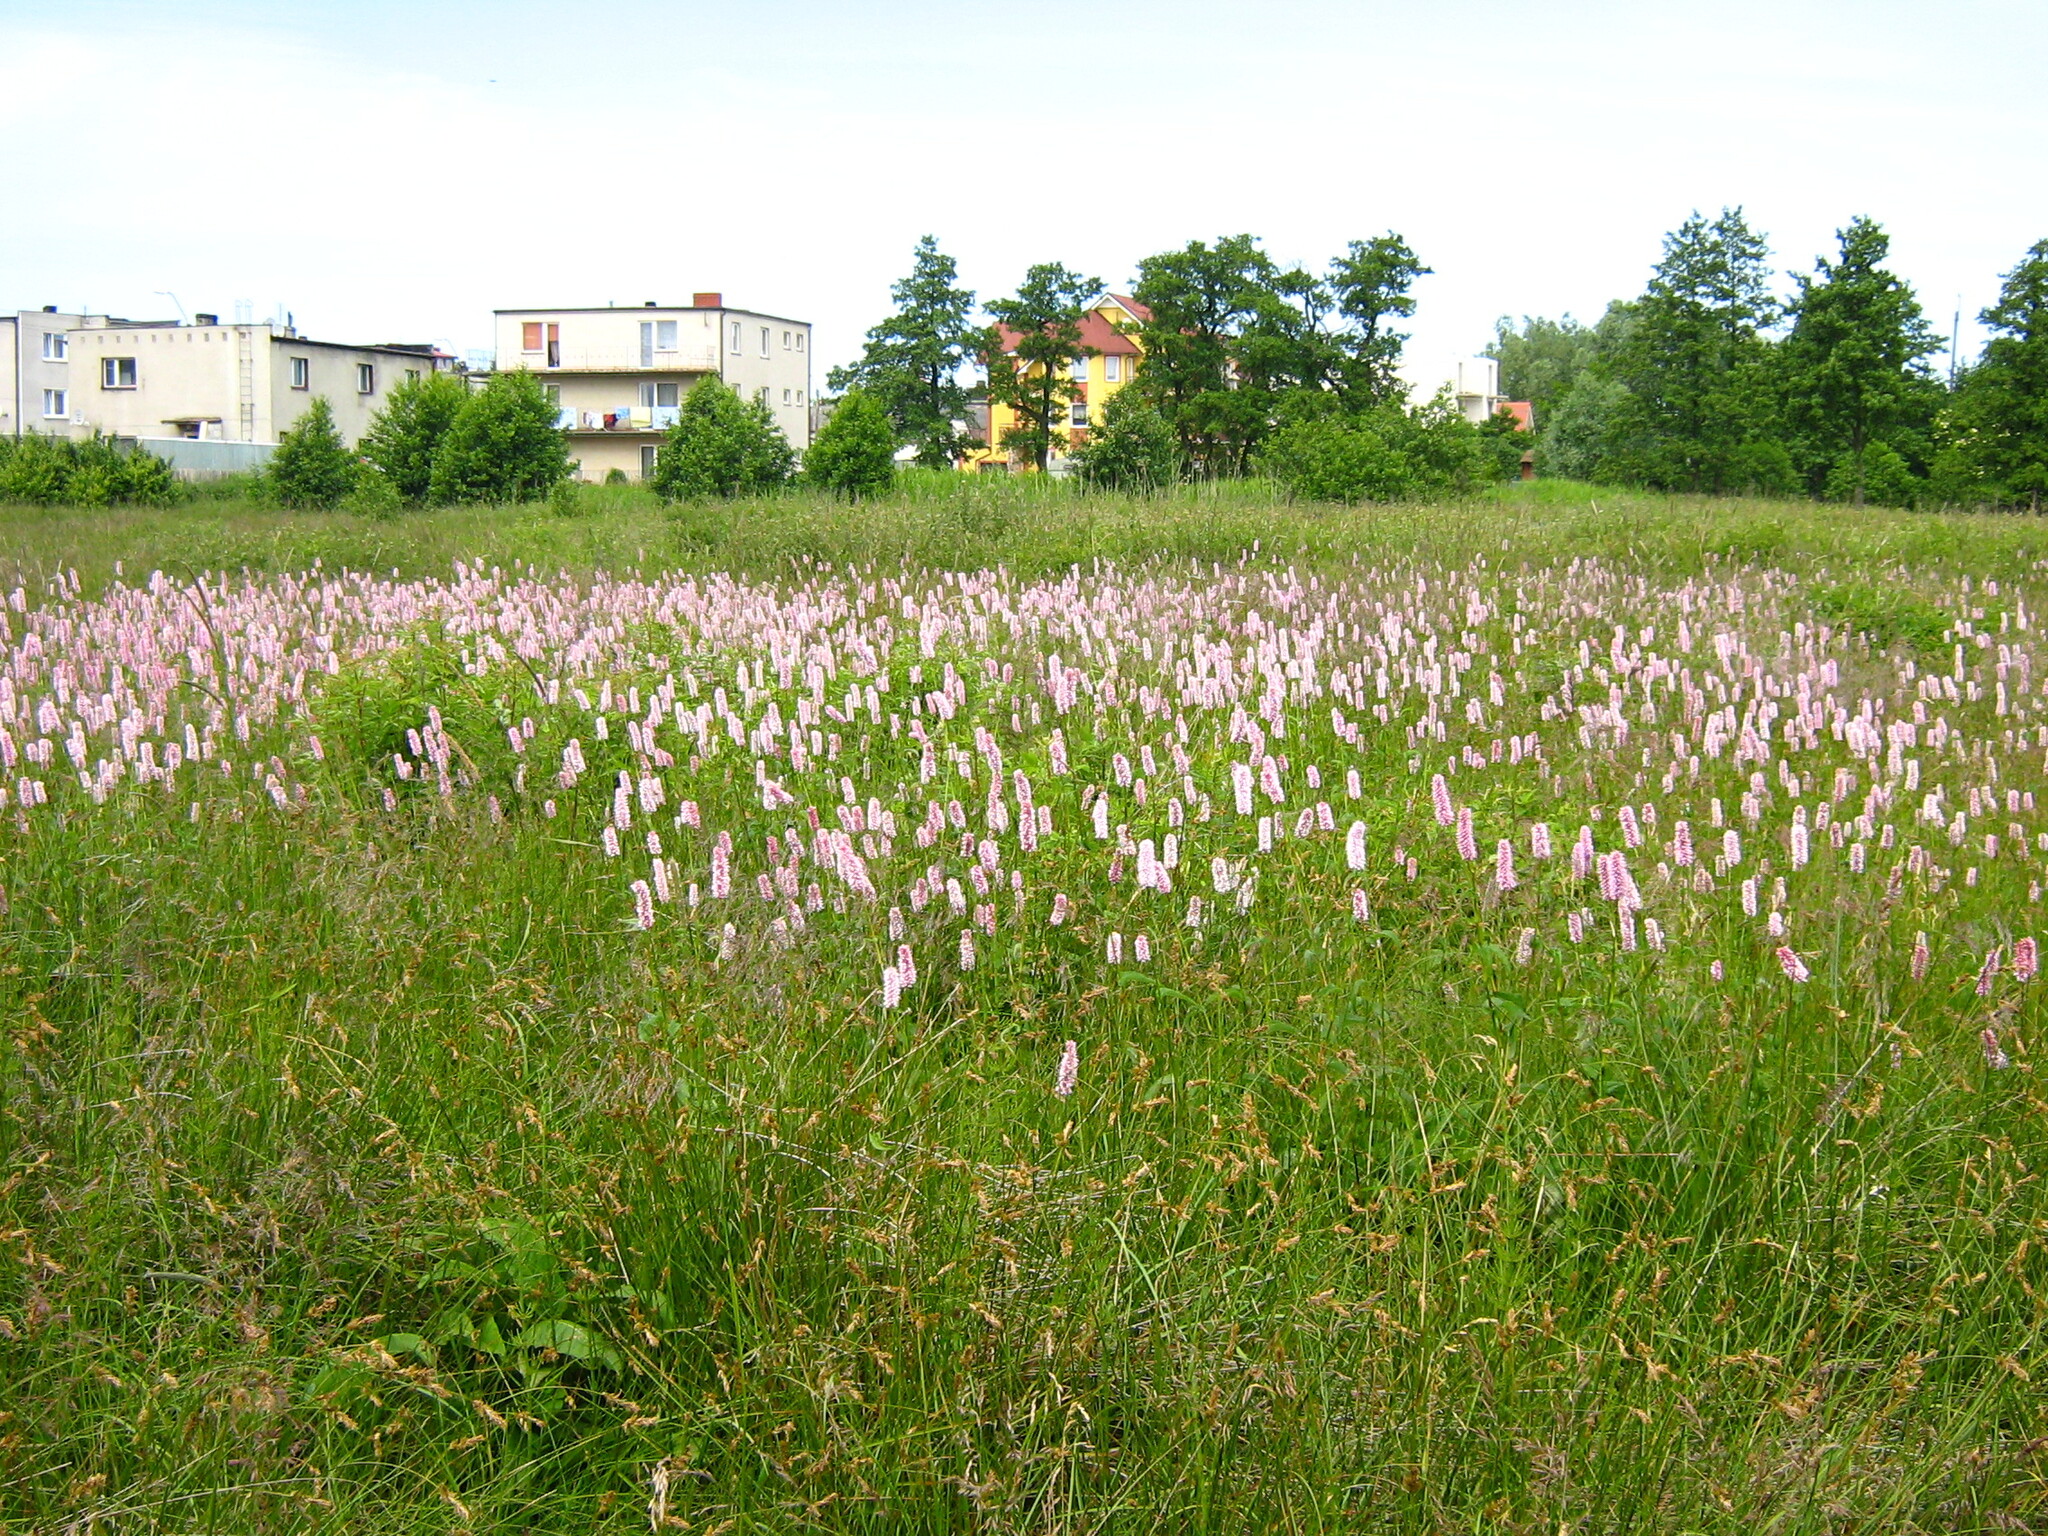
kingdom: Plantae
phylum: Tracheophyta
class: Magnoliopsida
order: Caryophyllales
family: Polygonaceae
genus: Bistorta
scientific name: Bistorta officinalis
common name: Common bistort
